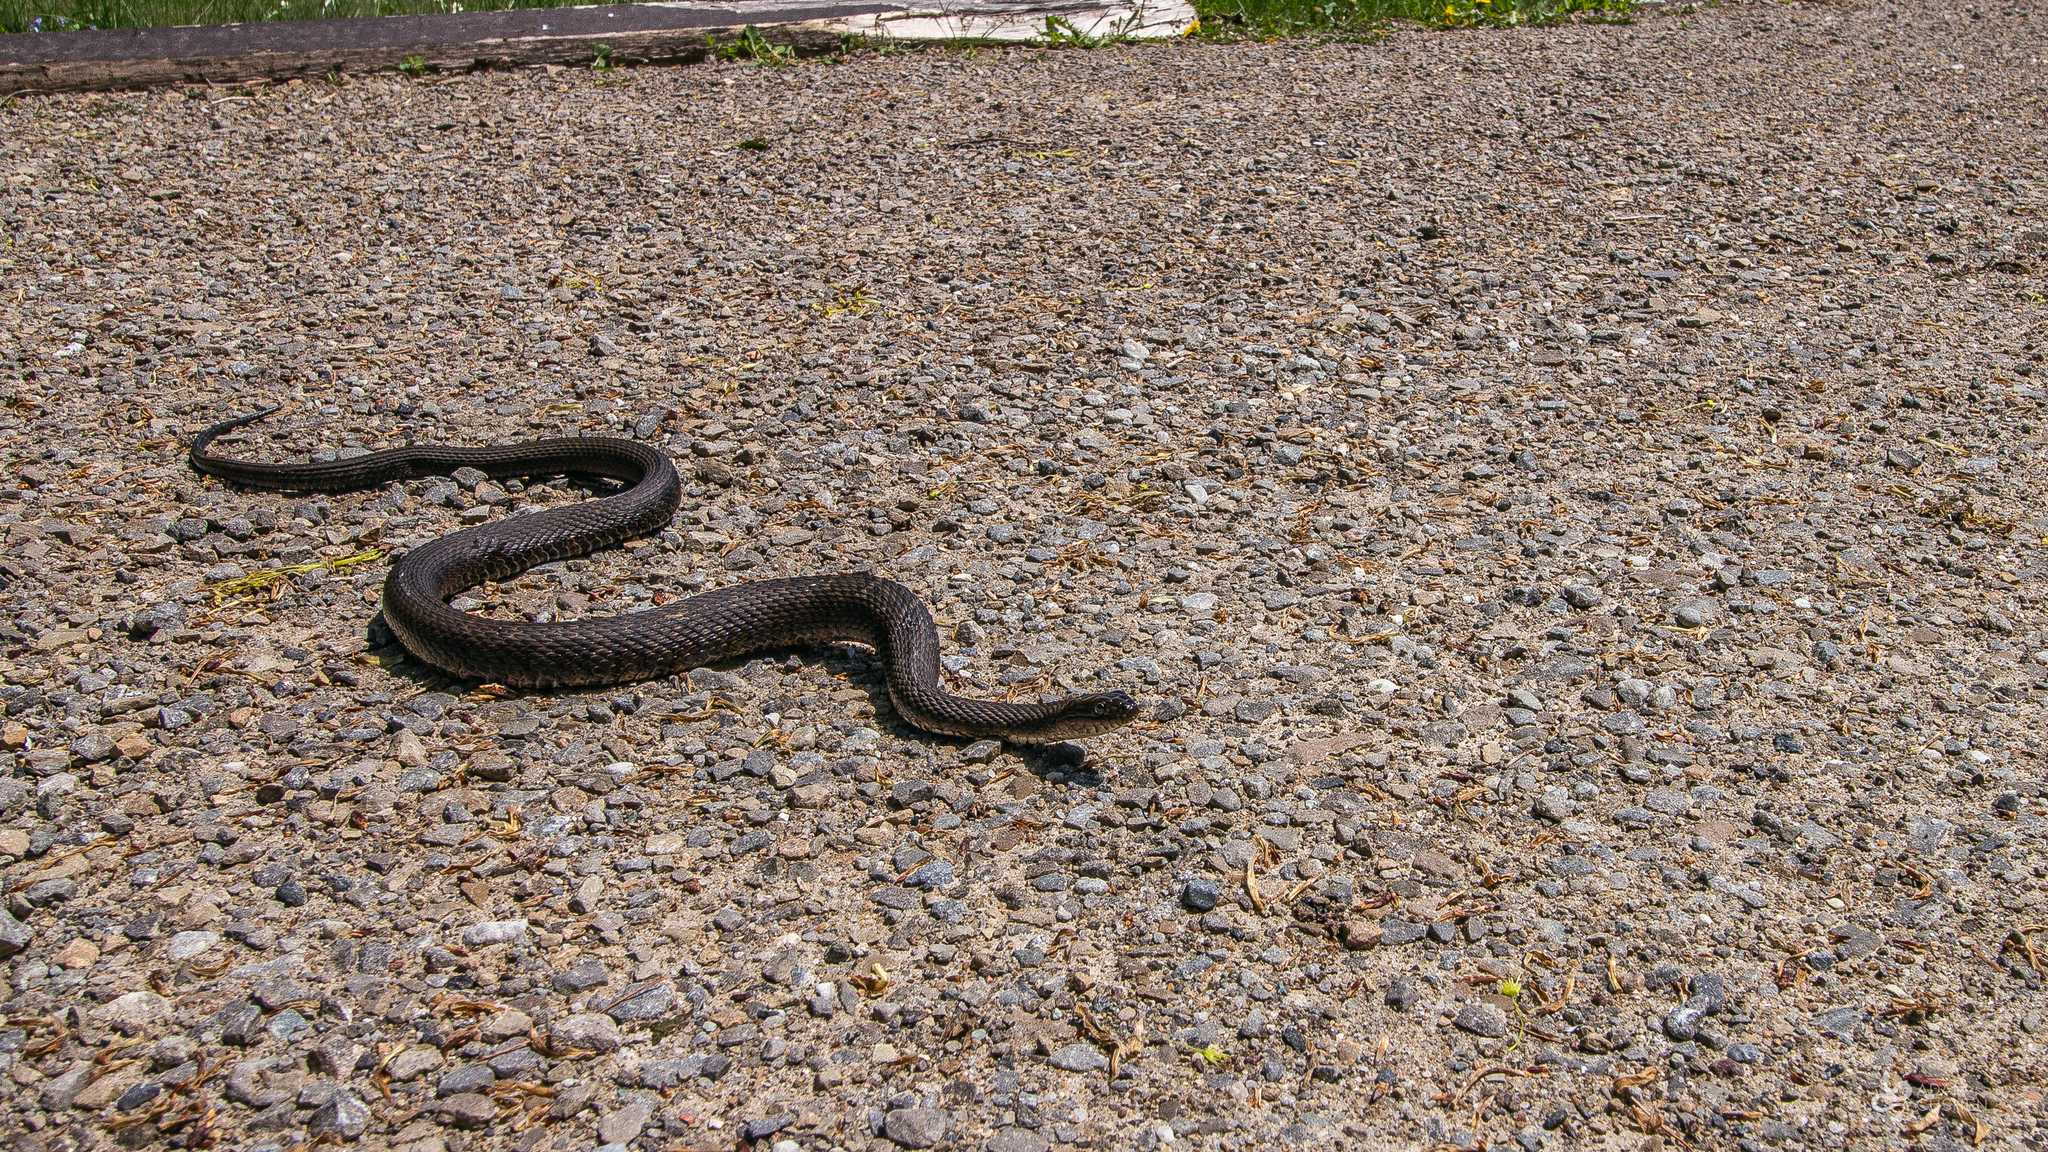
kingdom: Animalia
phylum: Chordata
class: Squamata
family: Colubridae
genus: Nerodia
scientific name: Nerodia sipedon
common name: Northern water snake
